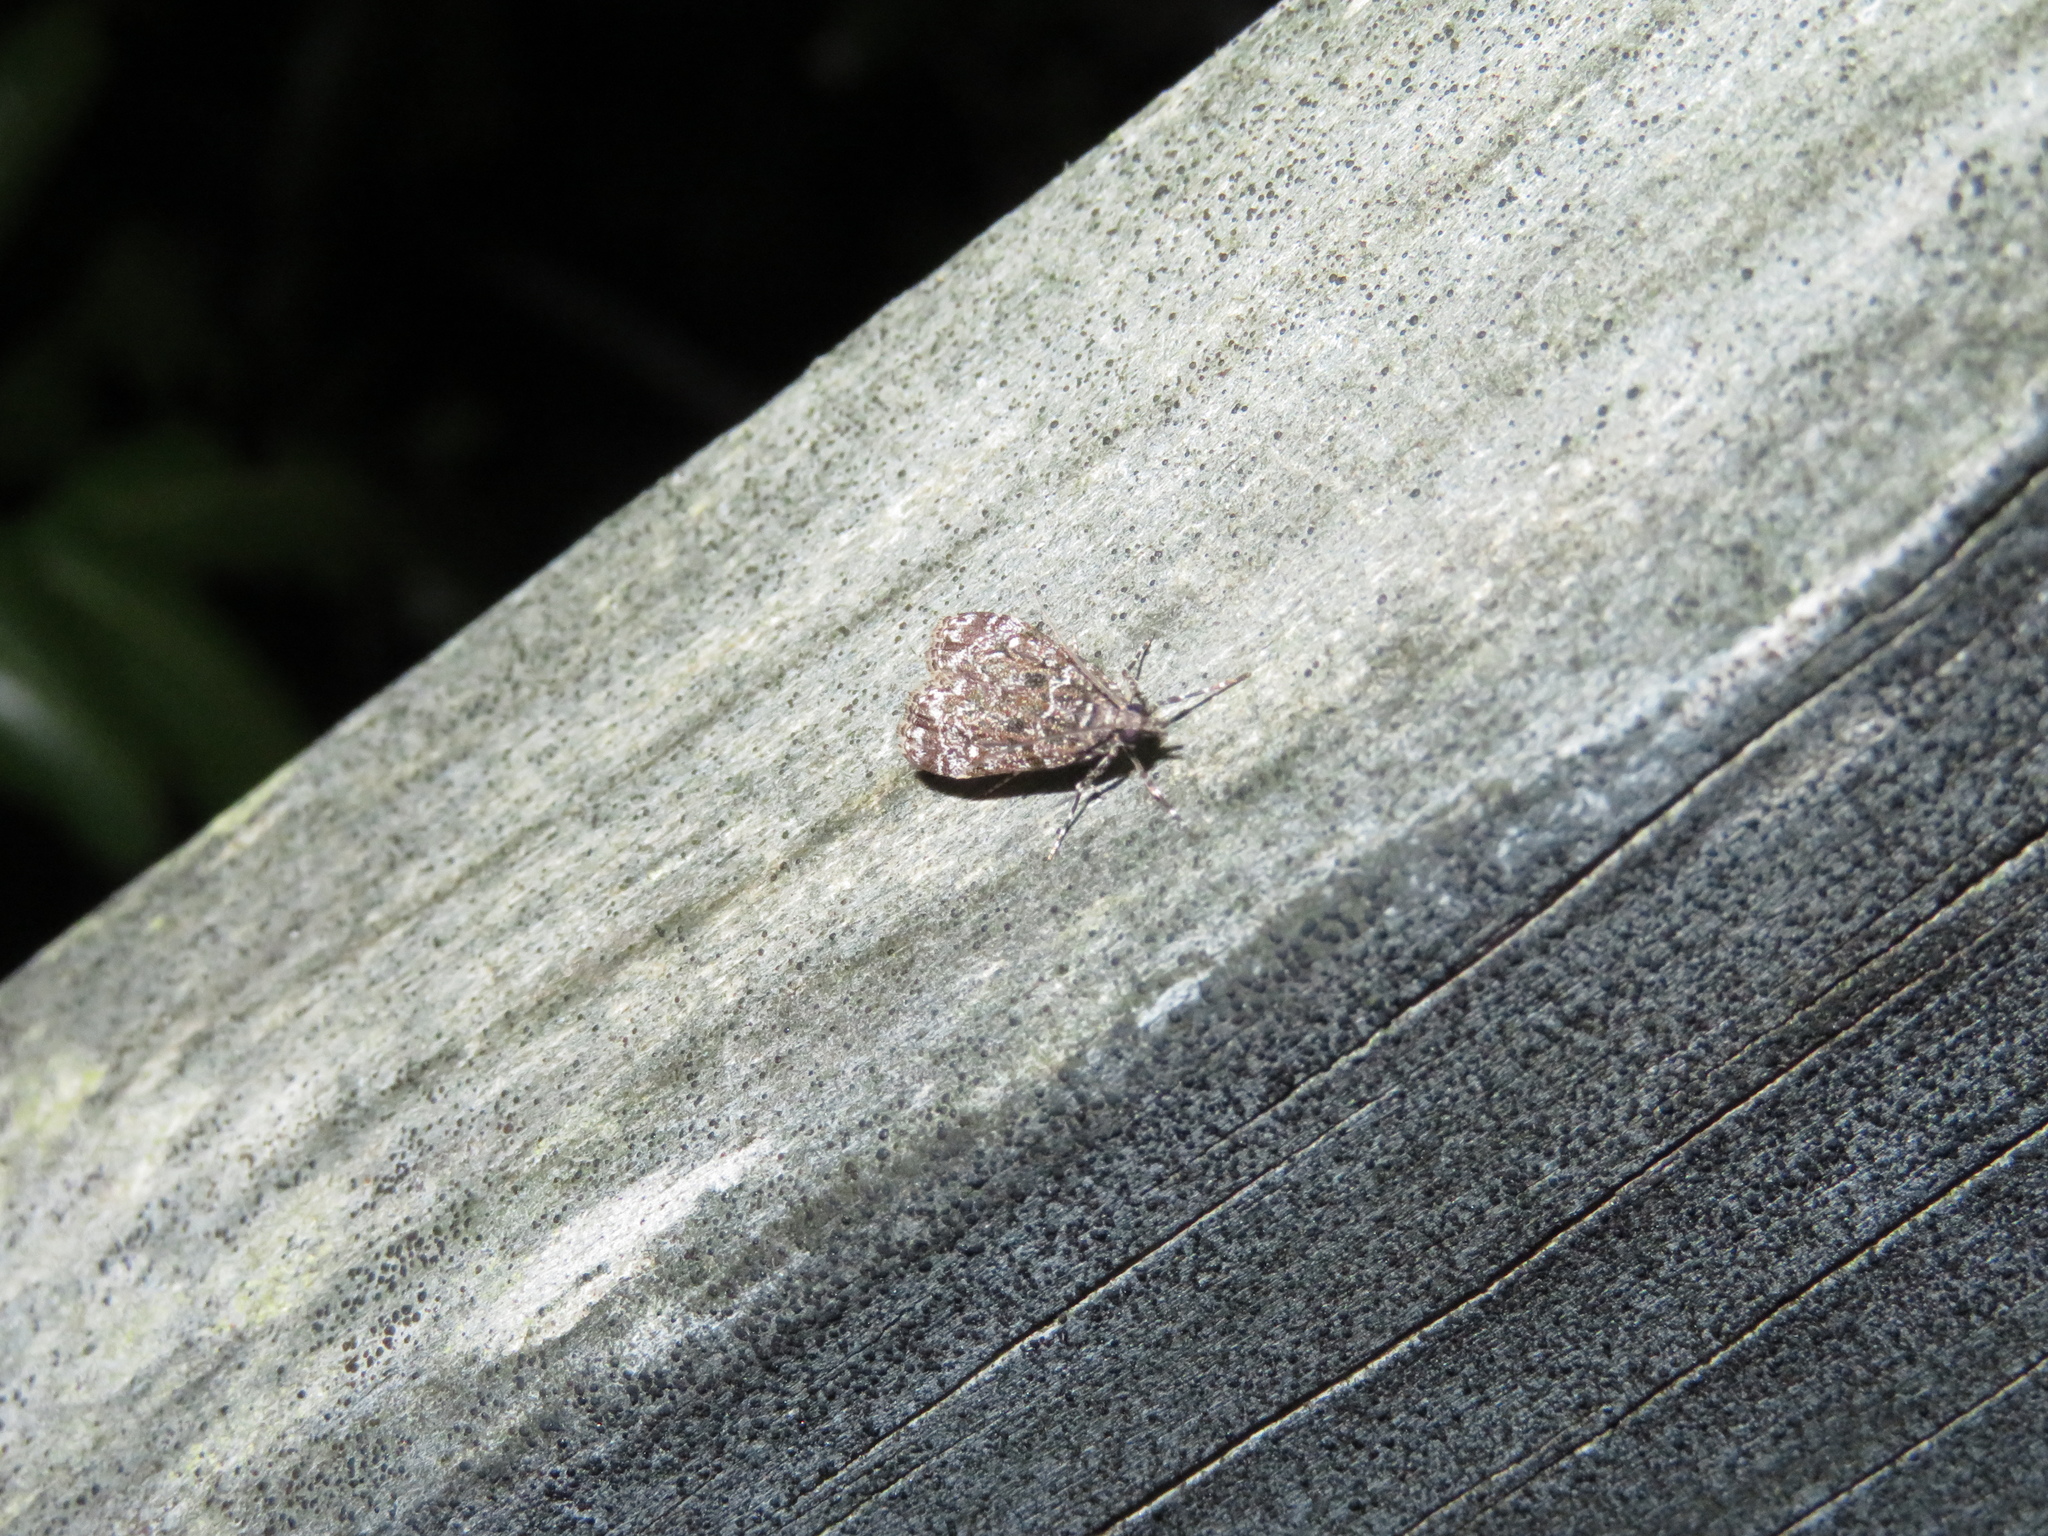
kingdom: Animalia
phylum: Arthropoda
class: Insecta
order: Lepidoptera
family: Crambidae
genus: Eudonia
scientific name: Eudonia philerga
